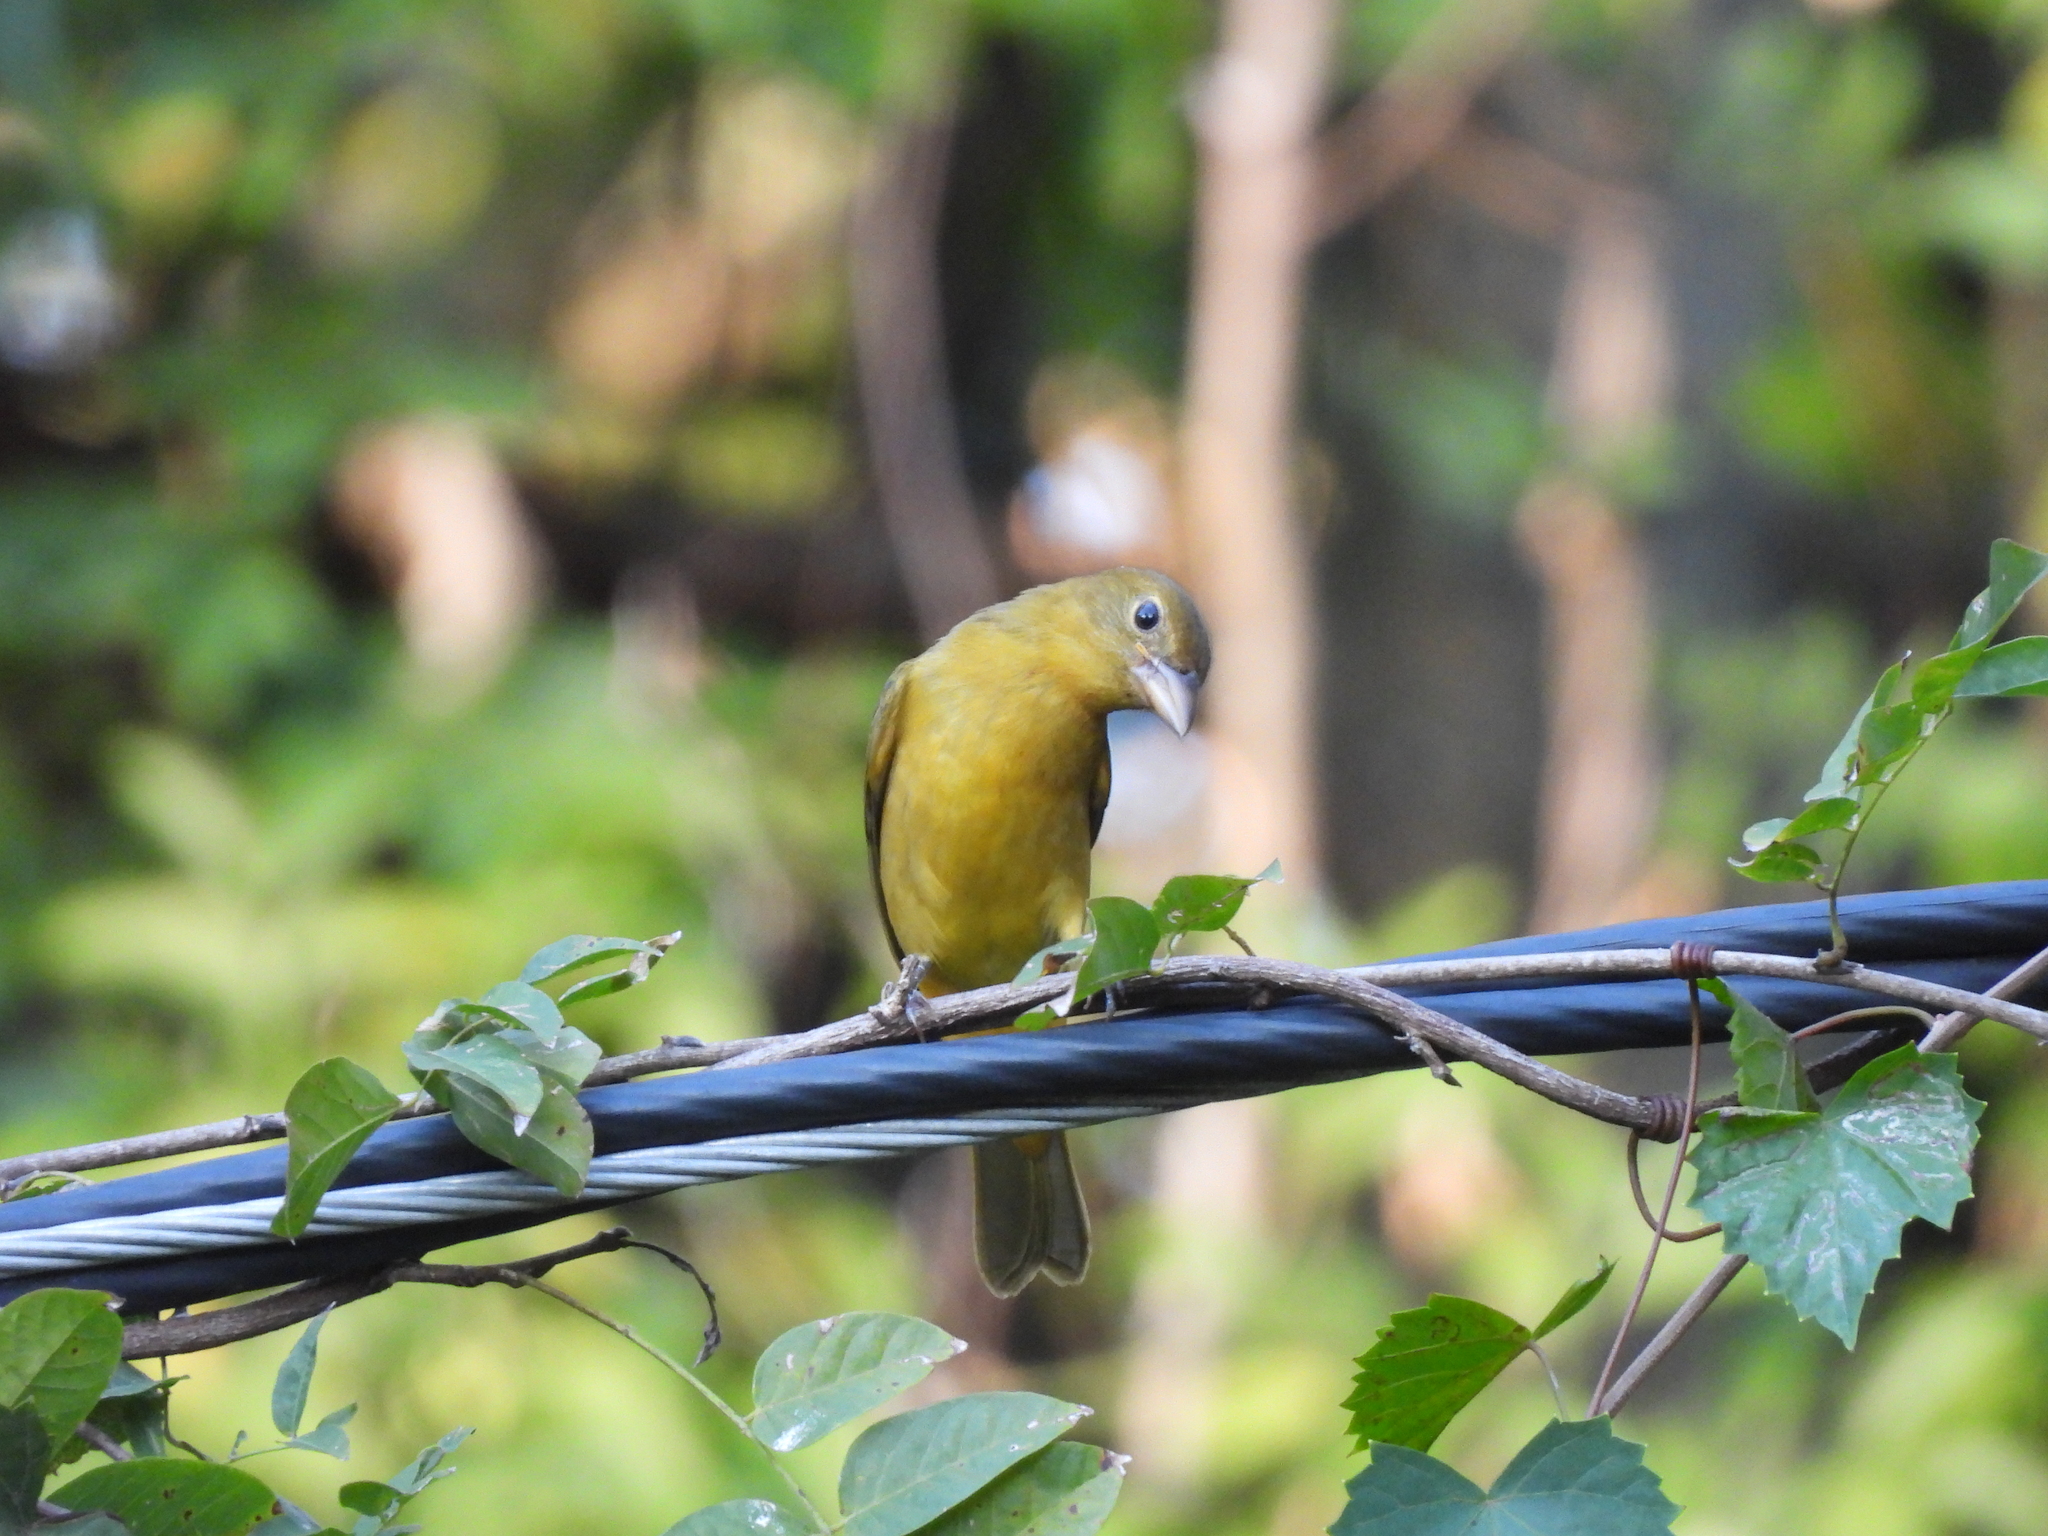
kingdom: Animalia
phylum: Chordata
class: Aves
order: Passeriformes
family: Cardinalidae
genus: Piranga
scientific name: Piranga rubra
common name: Summer tanager
